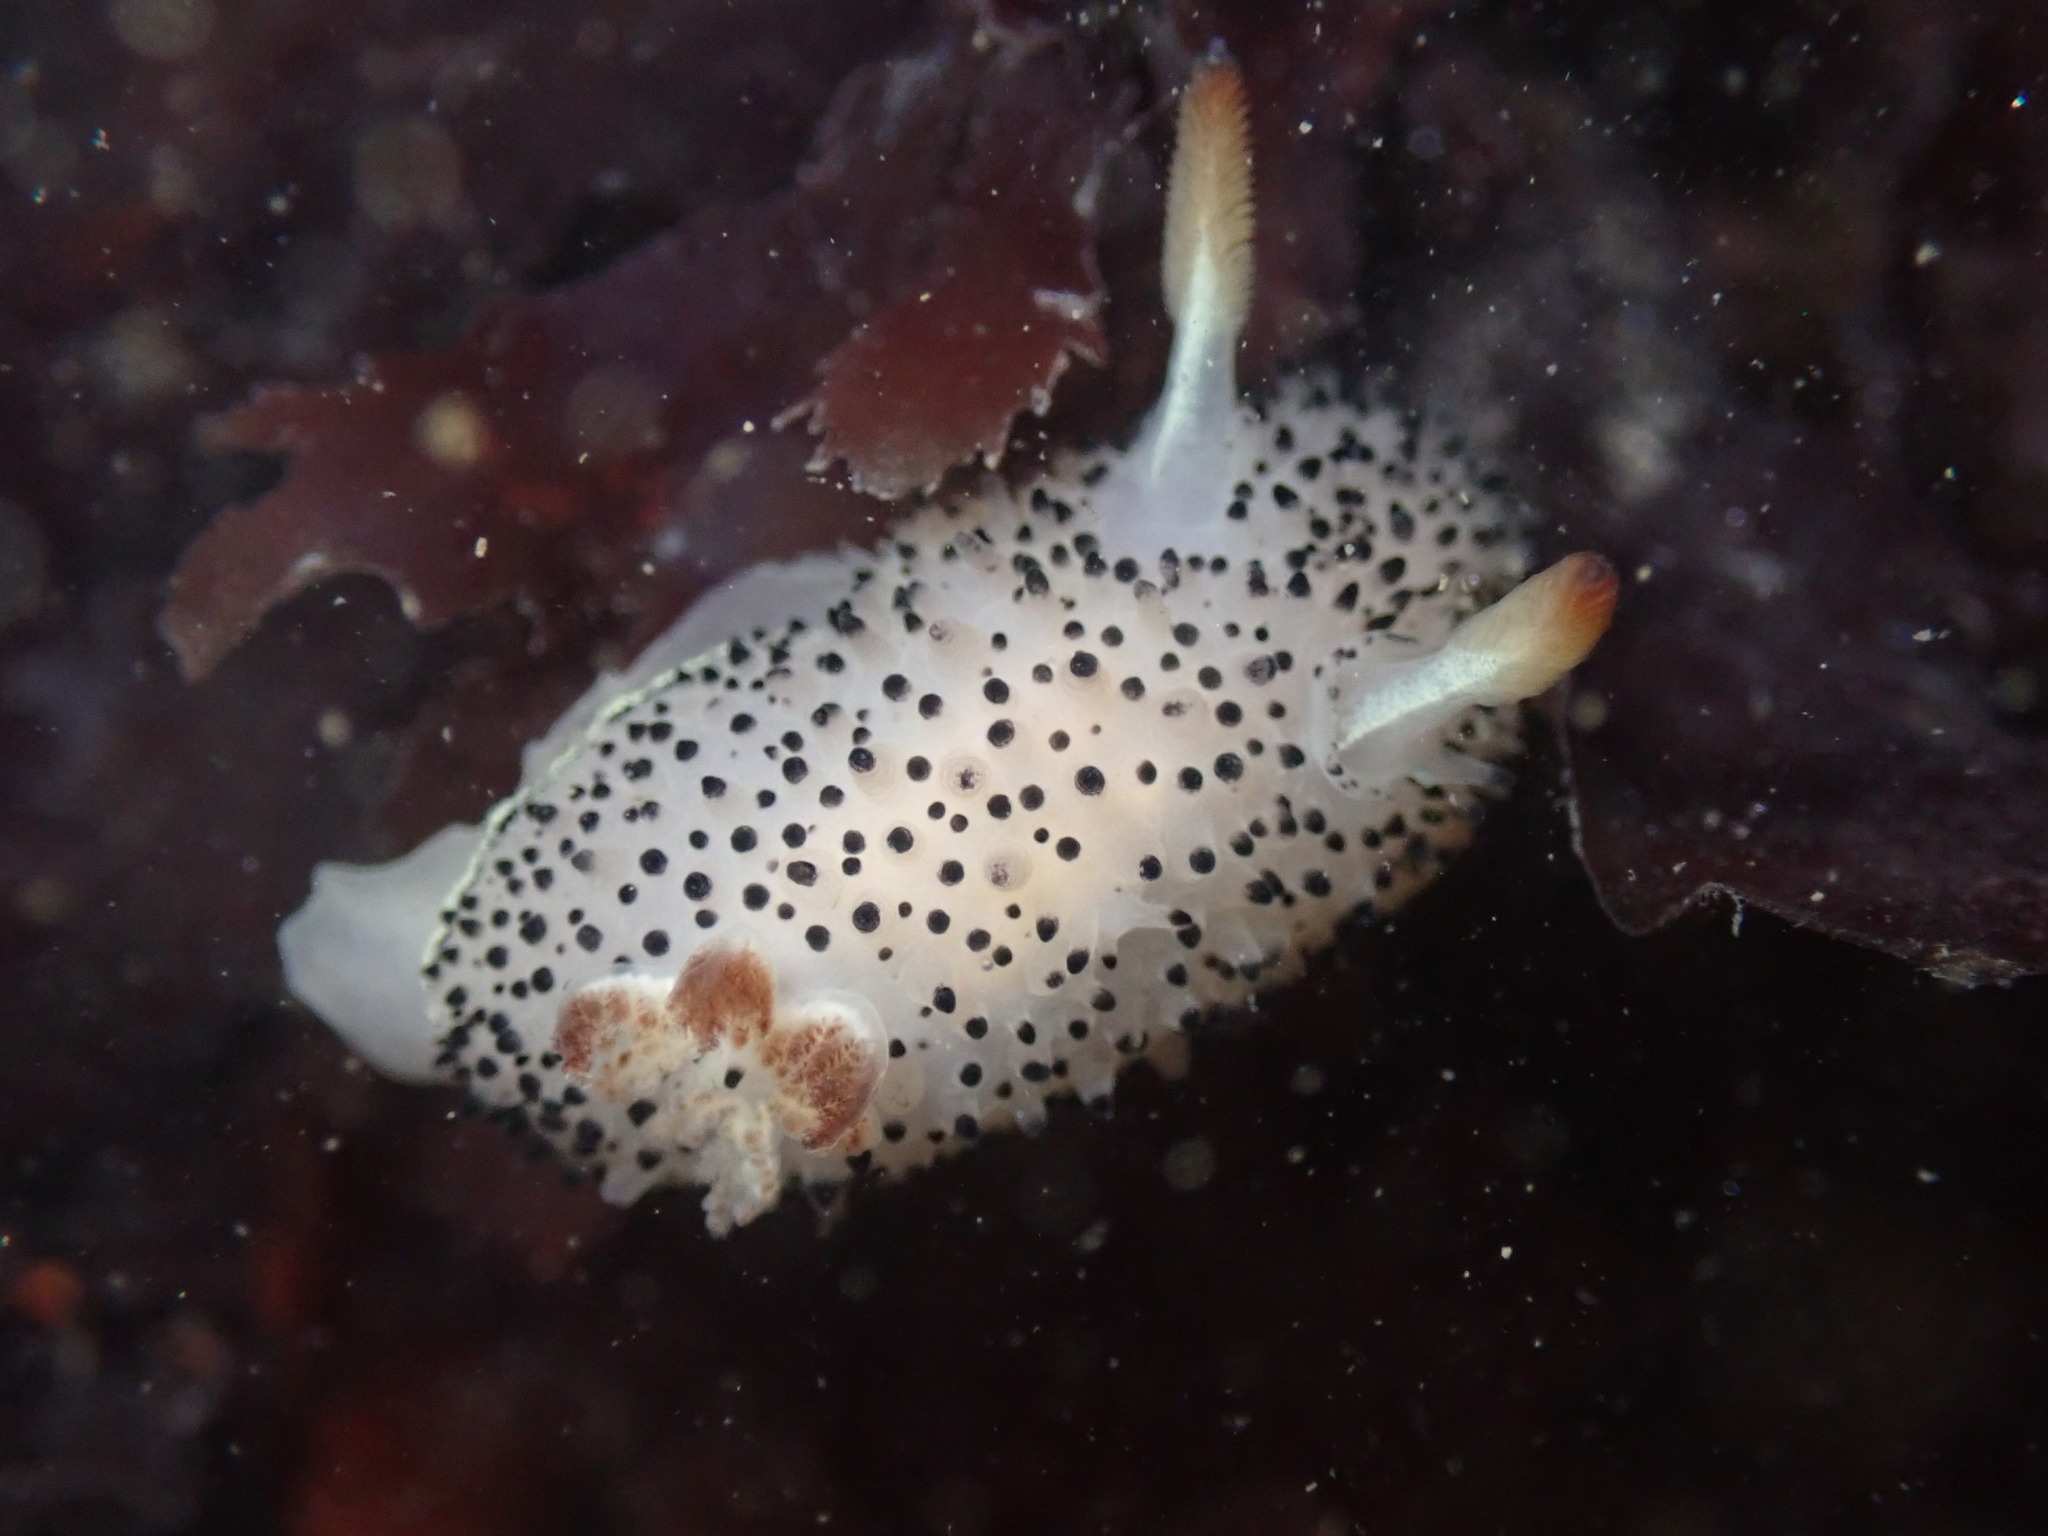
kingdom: Animalia
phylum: Mollusca
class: Gastropoda
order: Nudibranchia
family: Onchidorididae
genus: Acanthodoris
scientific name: Acanthodoris rhodoceras
